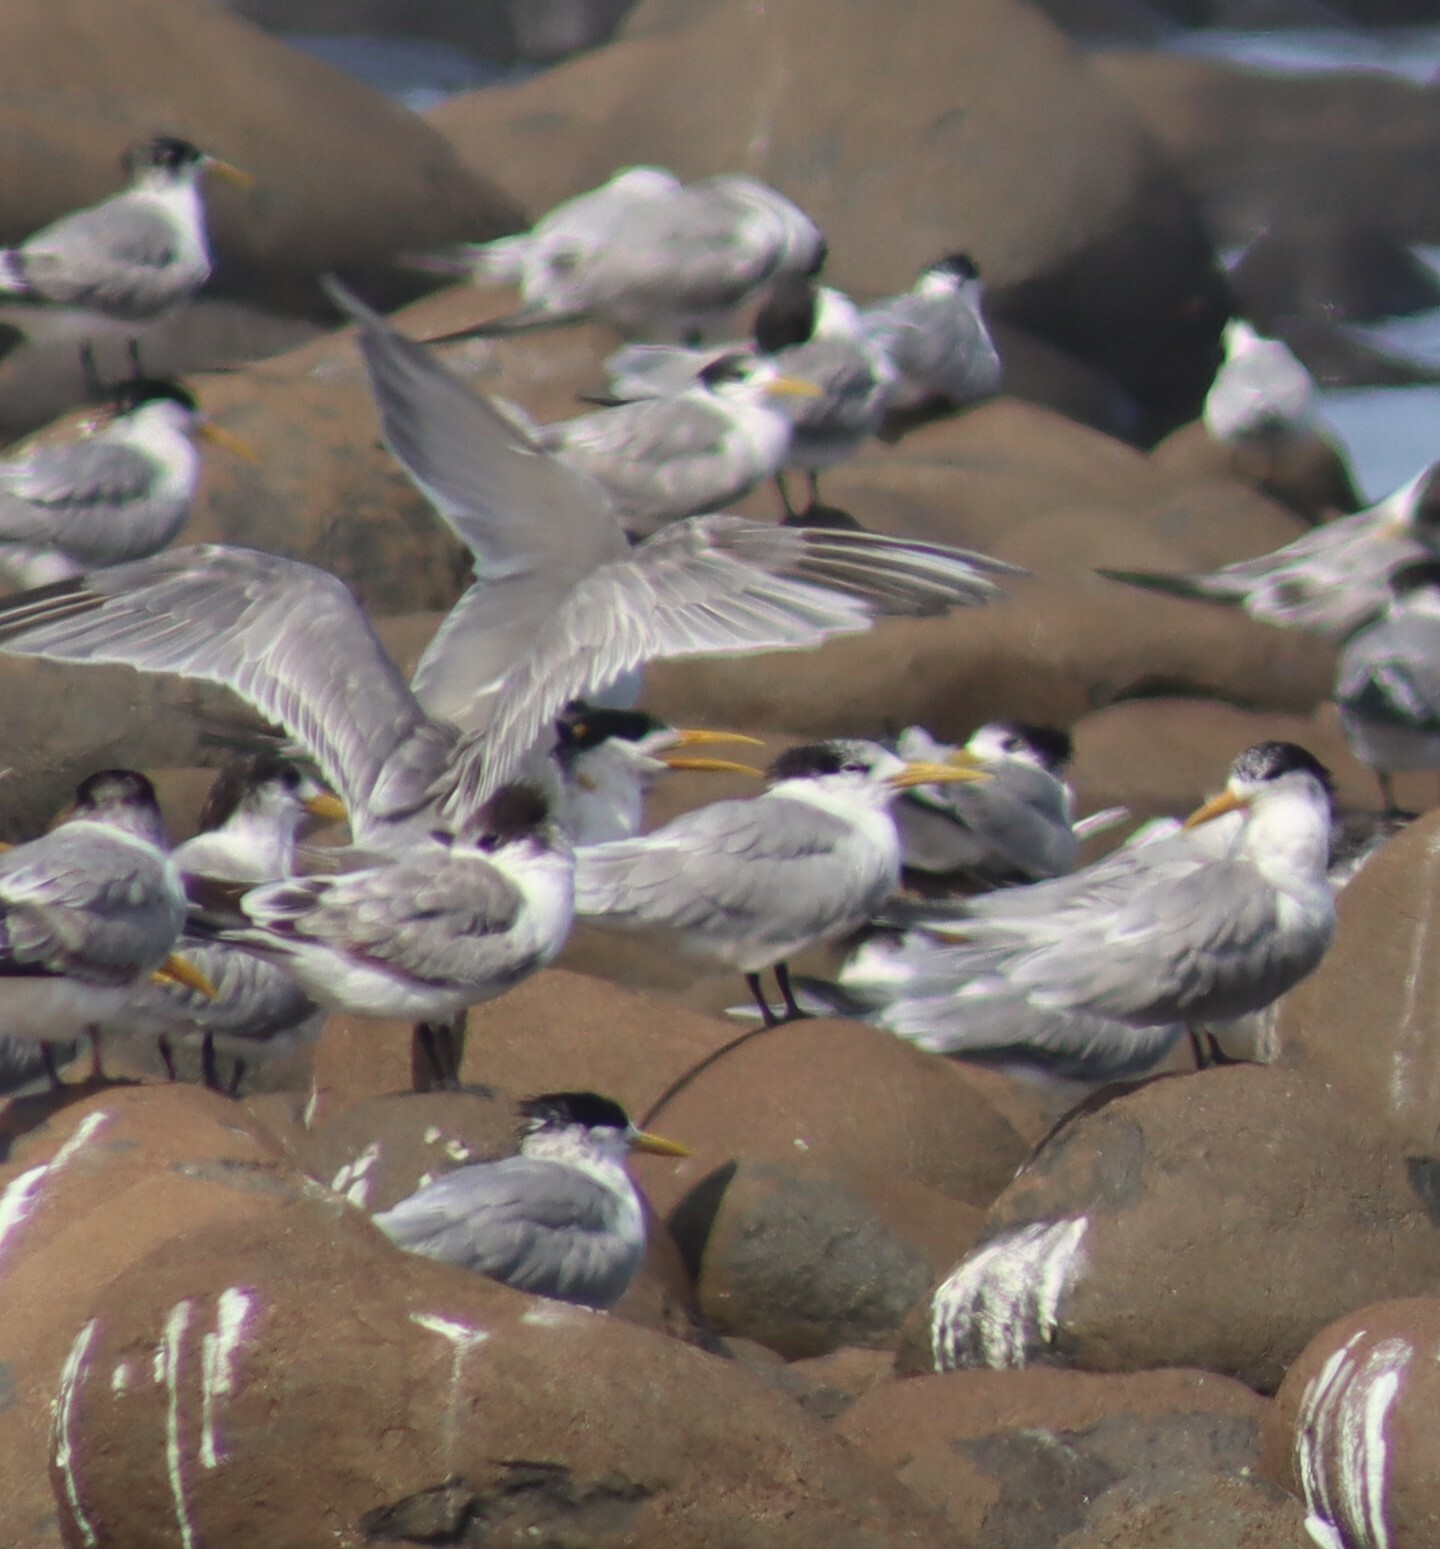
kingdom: Animalia
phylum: Chordata
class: Aves
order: Charadriiformes
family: Laridae
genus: Thalasseus
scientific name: Thalasseus bergii
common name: Greater crested tern
